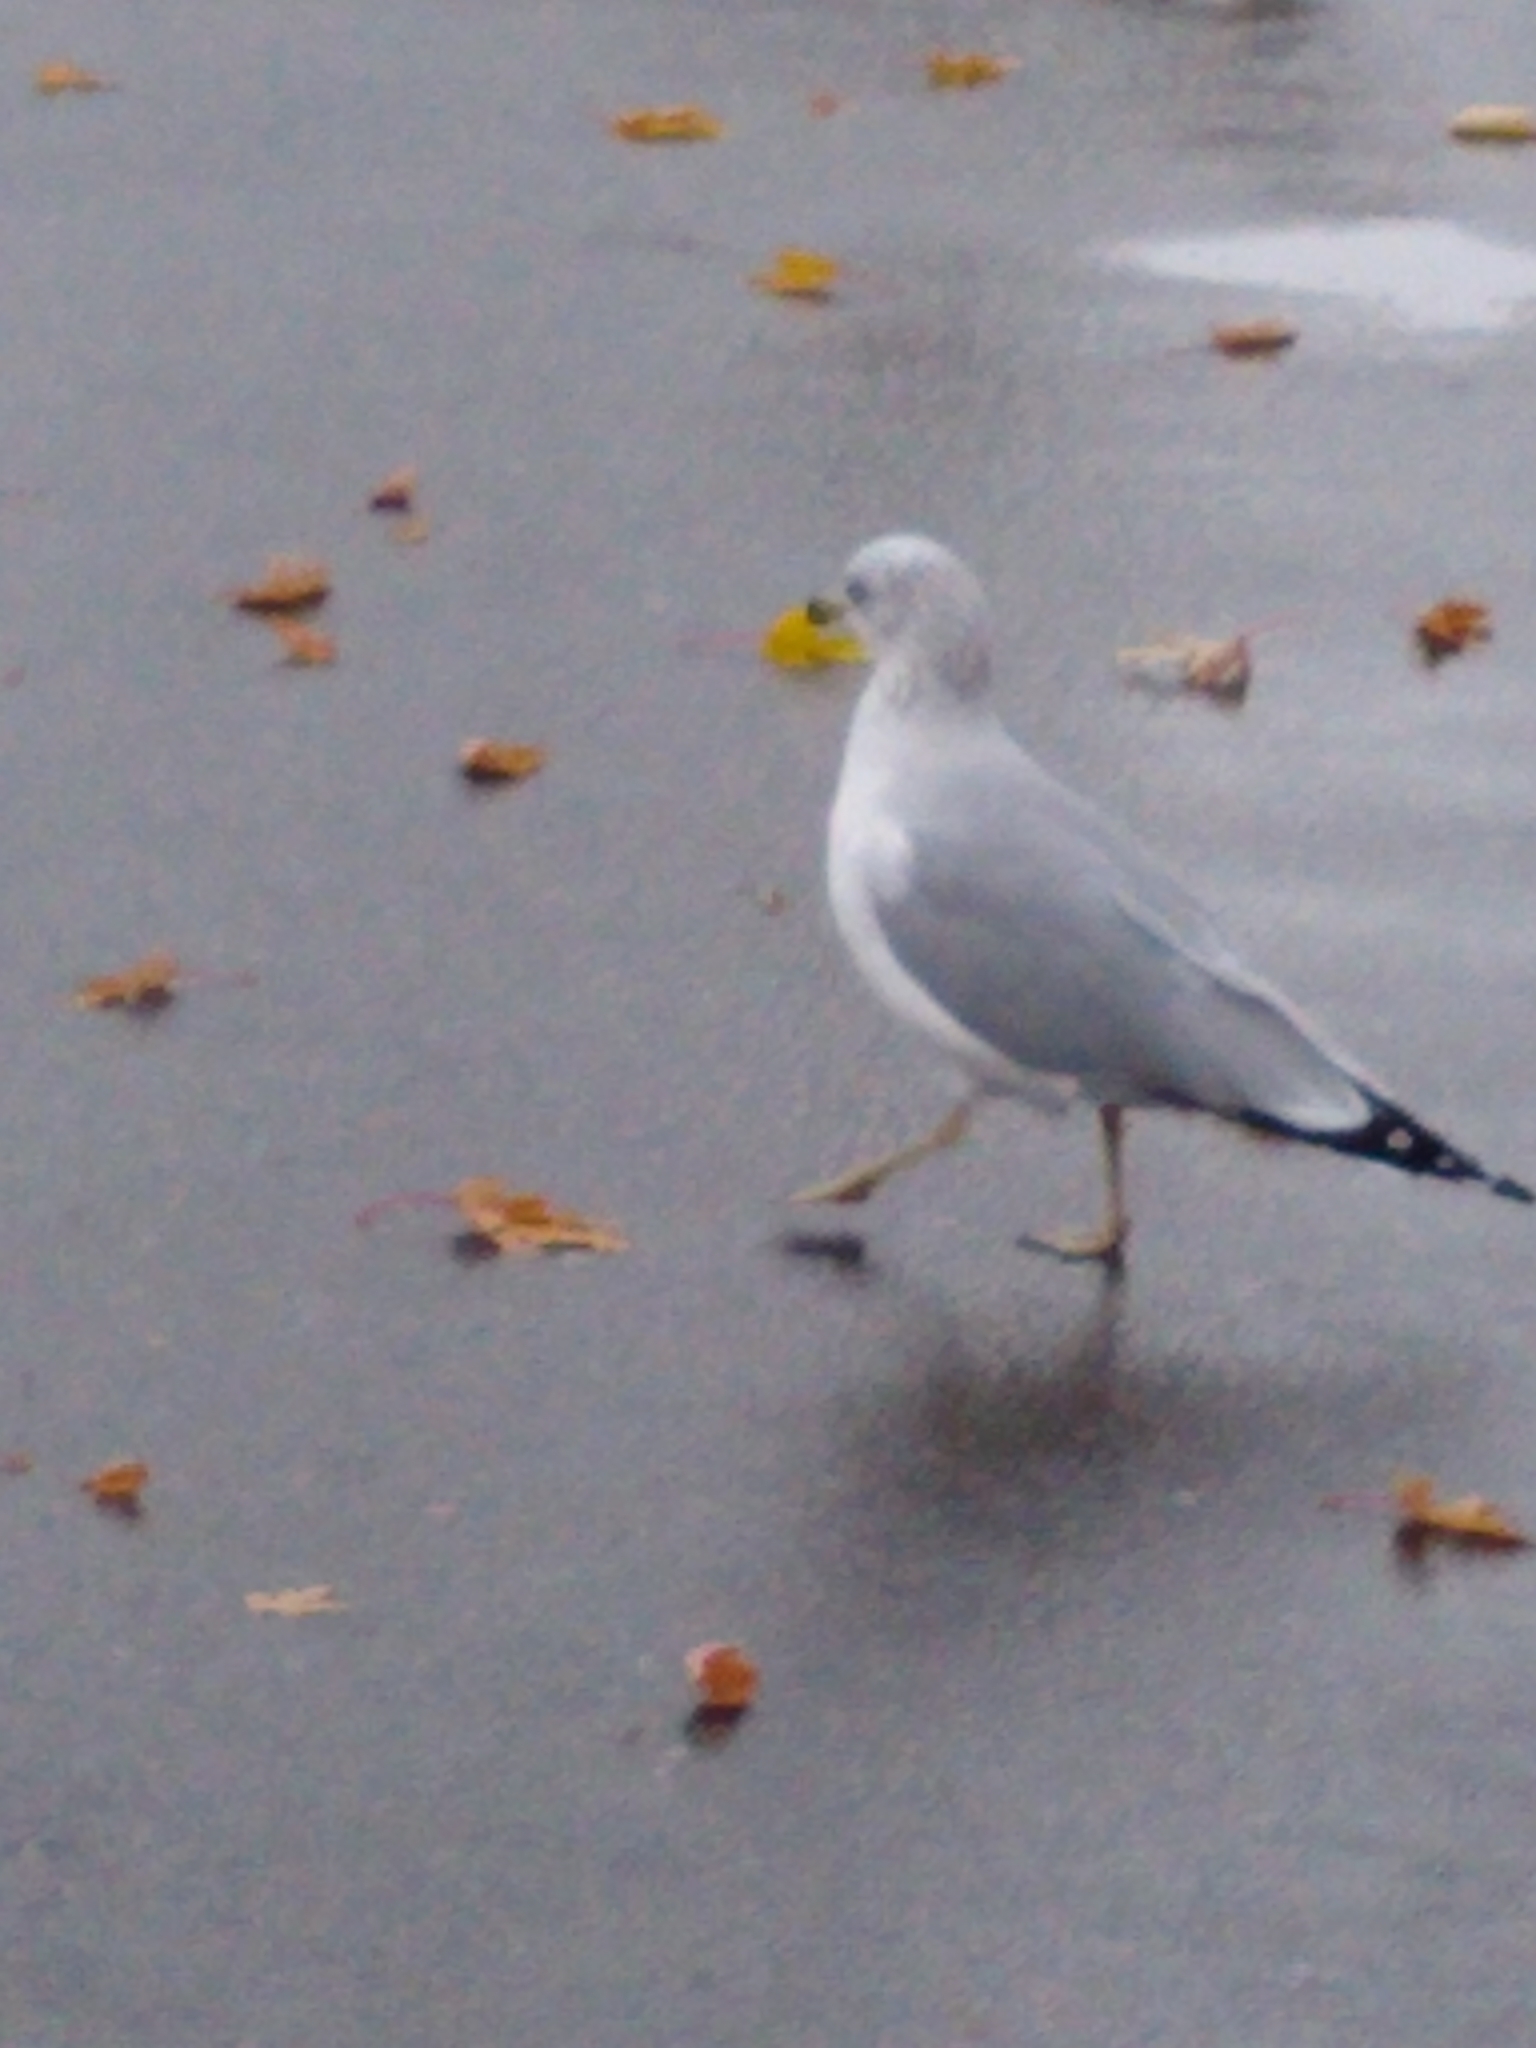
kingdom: Animalia
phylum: Chordata
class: Aves
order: Charadriiformes
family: Laridae
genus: Larus
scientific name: Larus delawarensis
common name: Ring-billed gull
